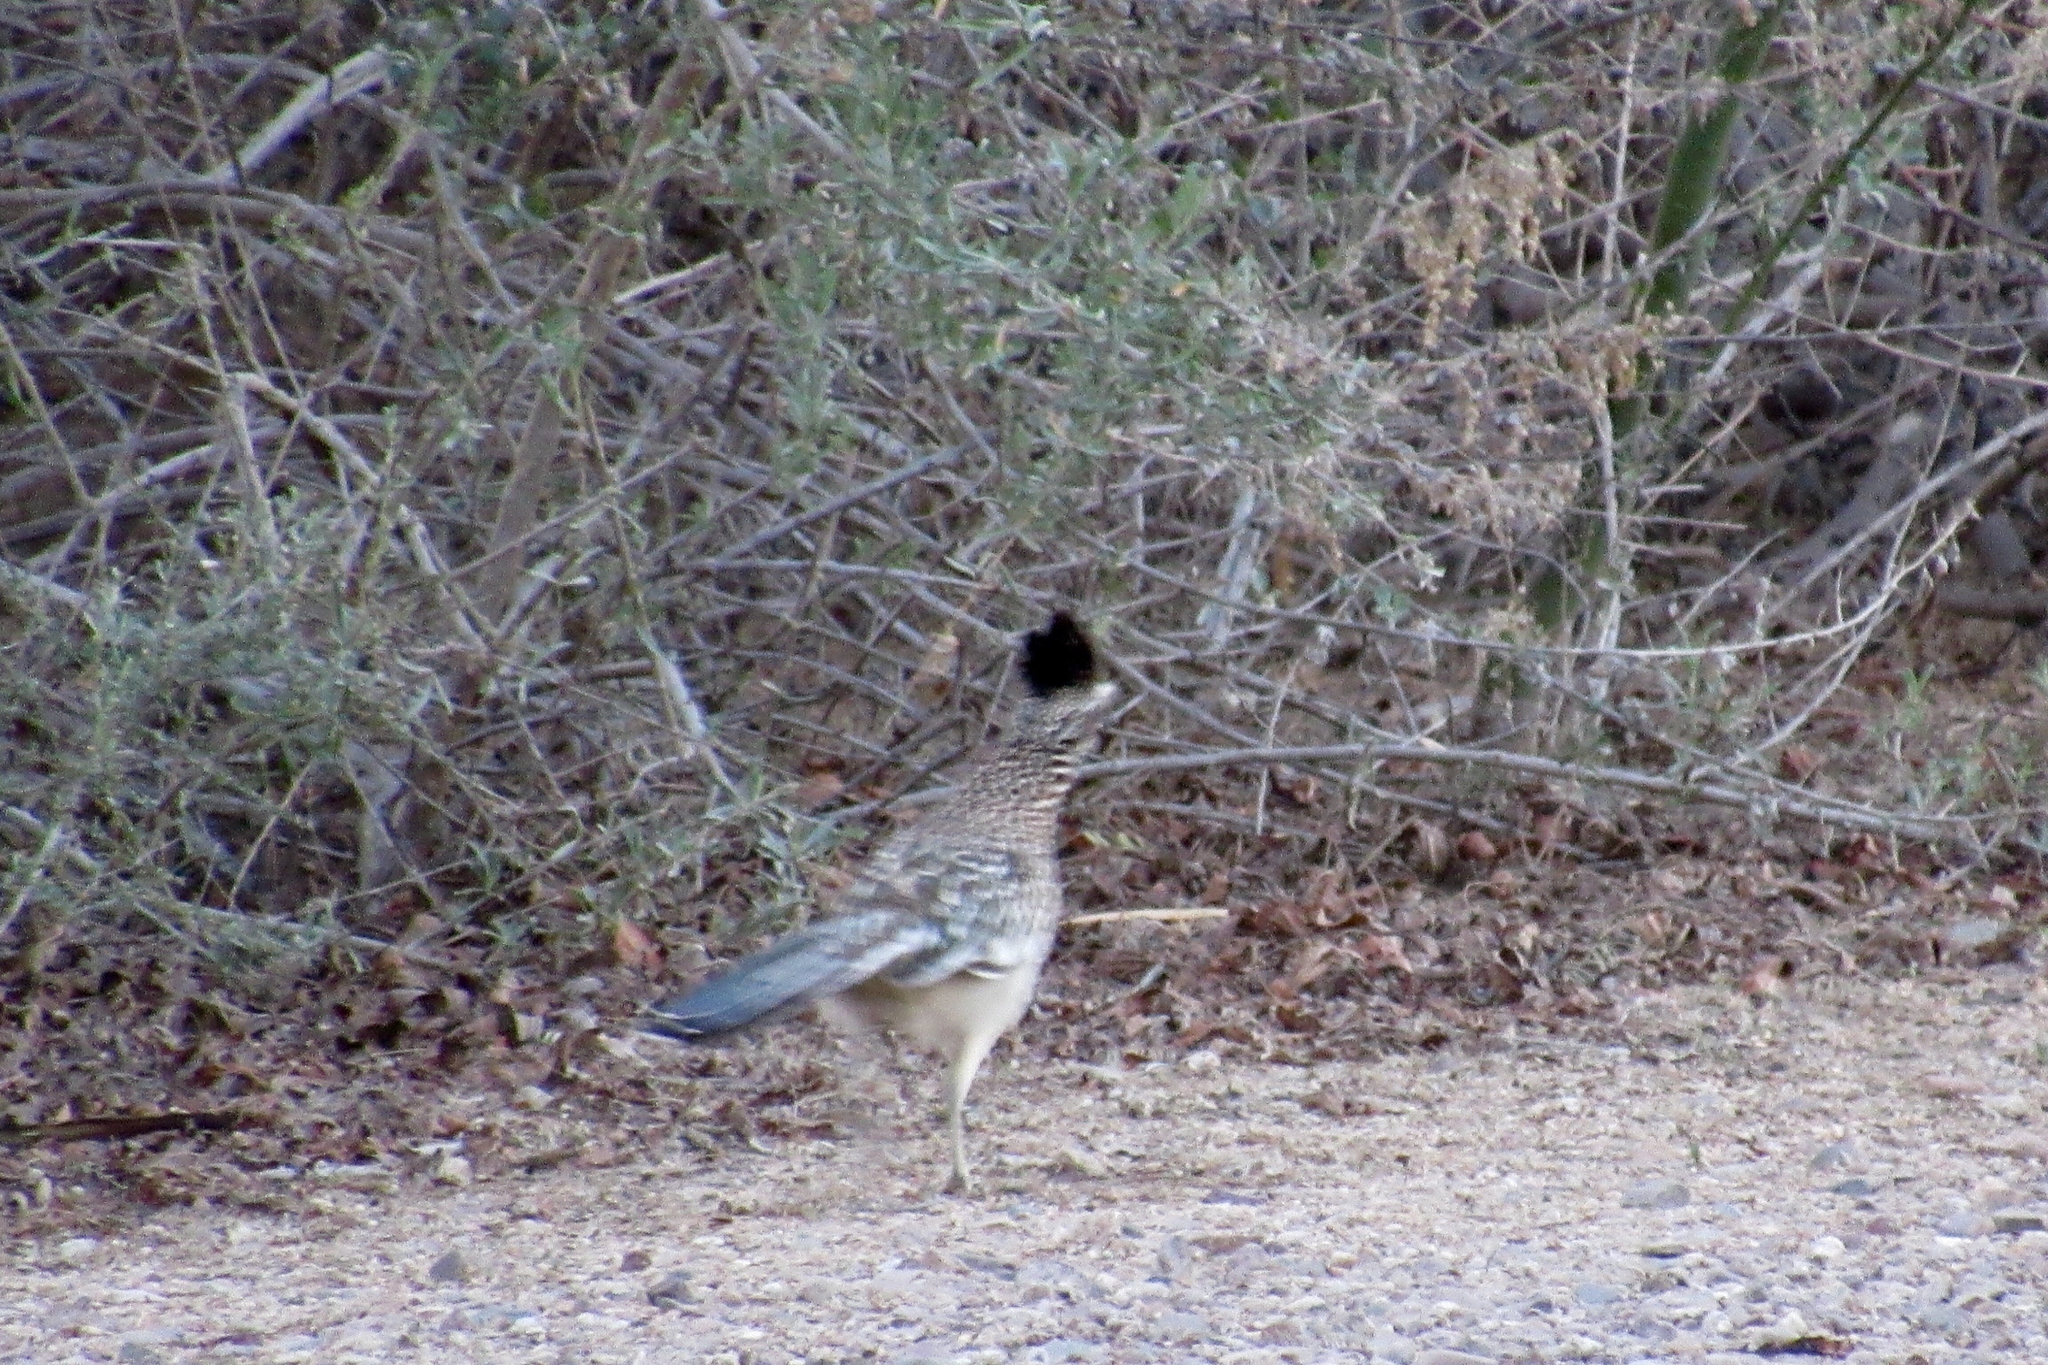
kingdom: Animalia
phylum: Chordata
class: Aves
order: Cuculiformes
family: Cuculidae
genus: Geococcyx
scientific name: Geococcyx californianus
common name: Greater roadrunner
